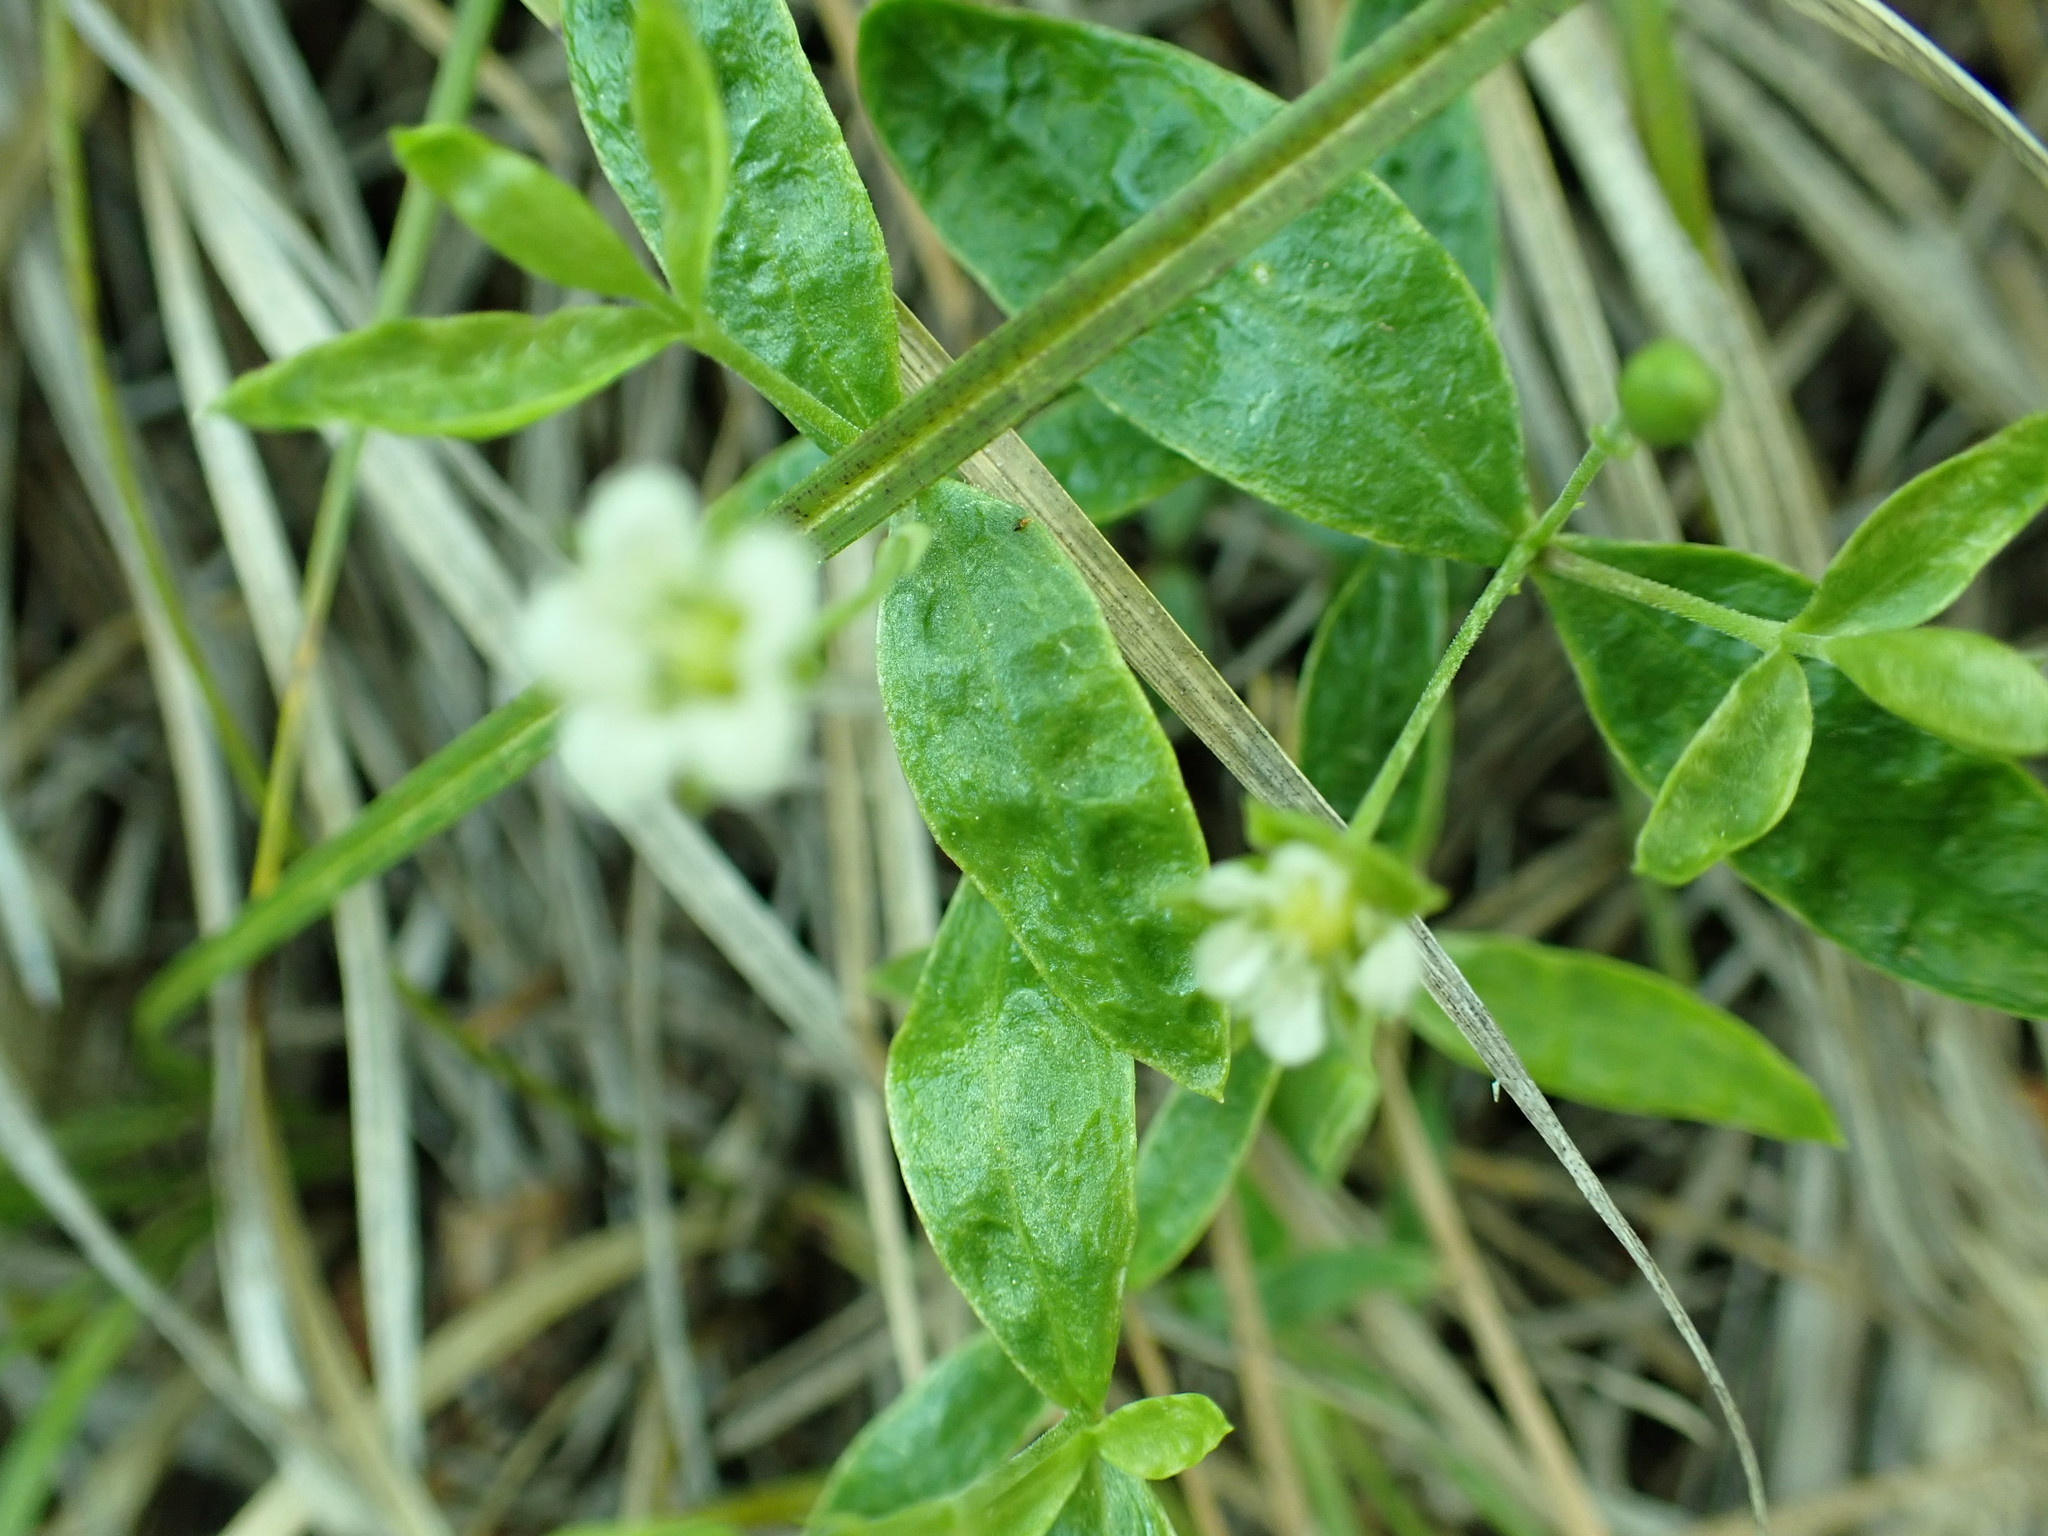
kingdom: Plantae
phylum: Tracheophyta
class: Magnoliopsida
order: Caryophyllales
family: Caryophyllaceae
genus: Moehringia
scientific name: Moehringia macrophylla
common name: Big-leaf sandwort
